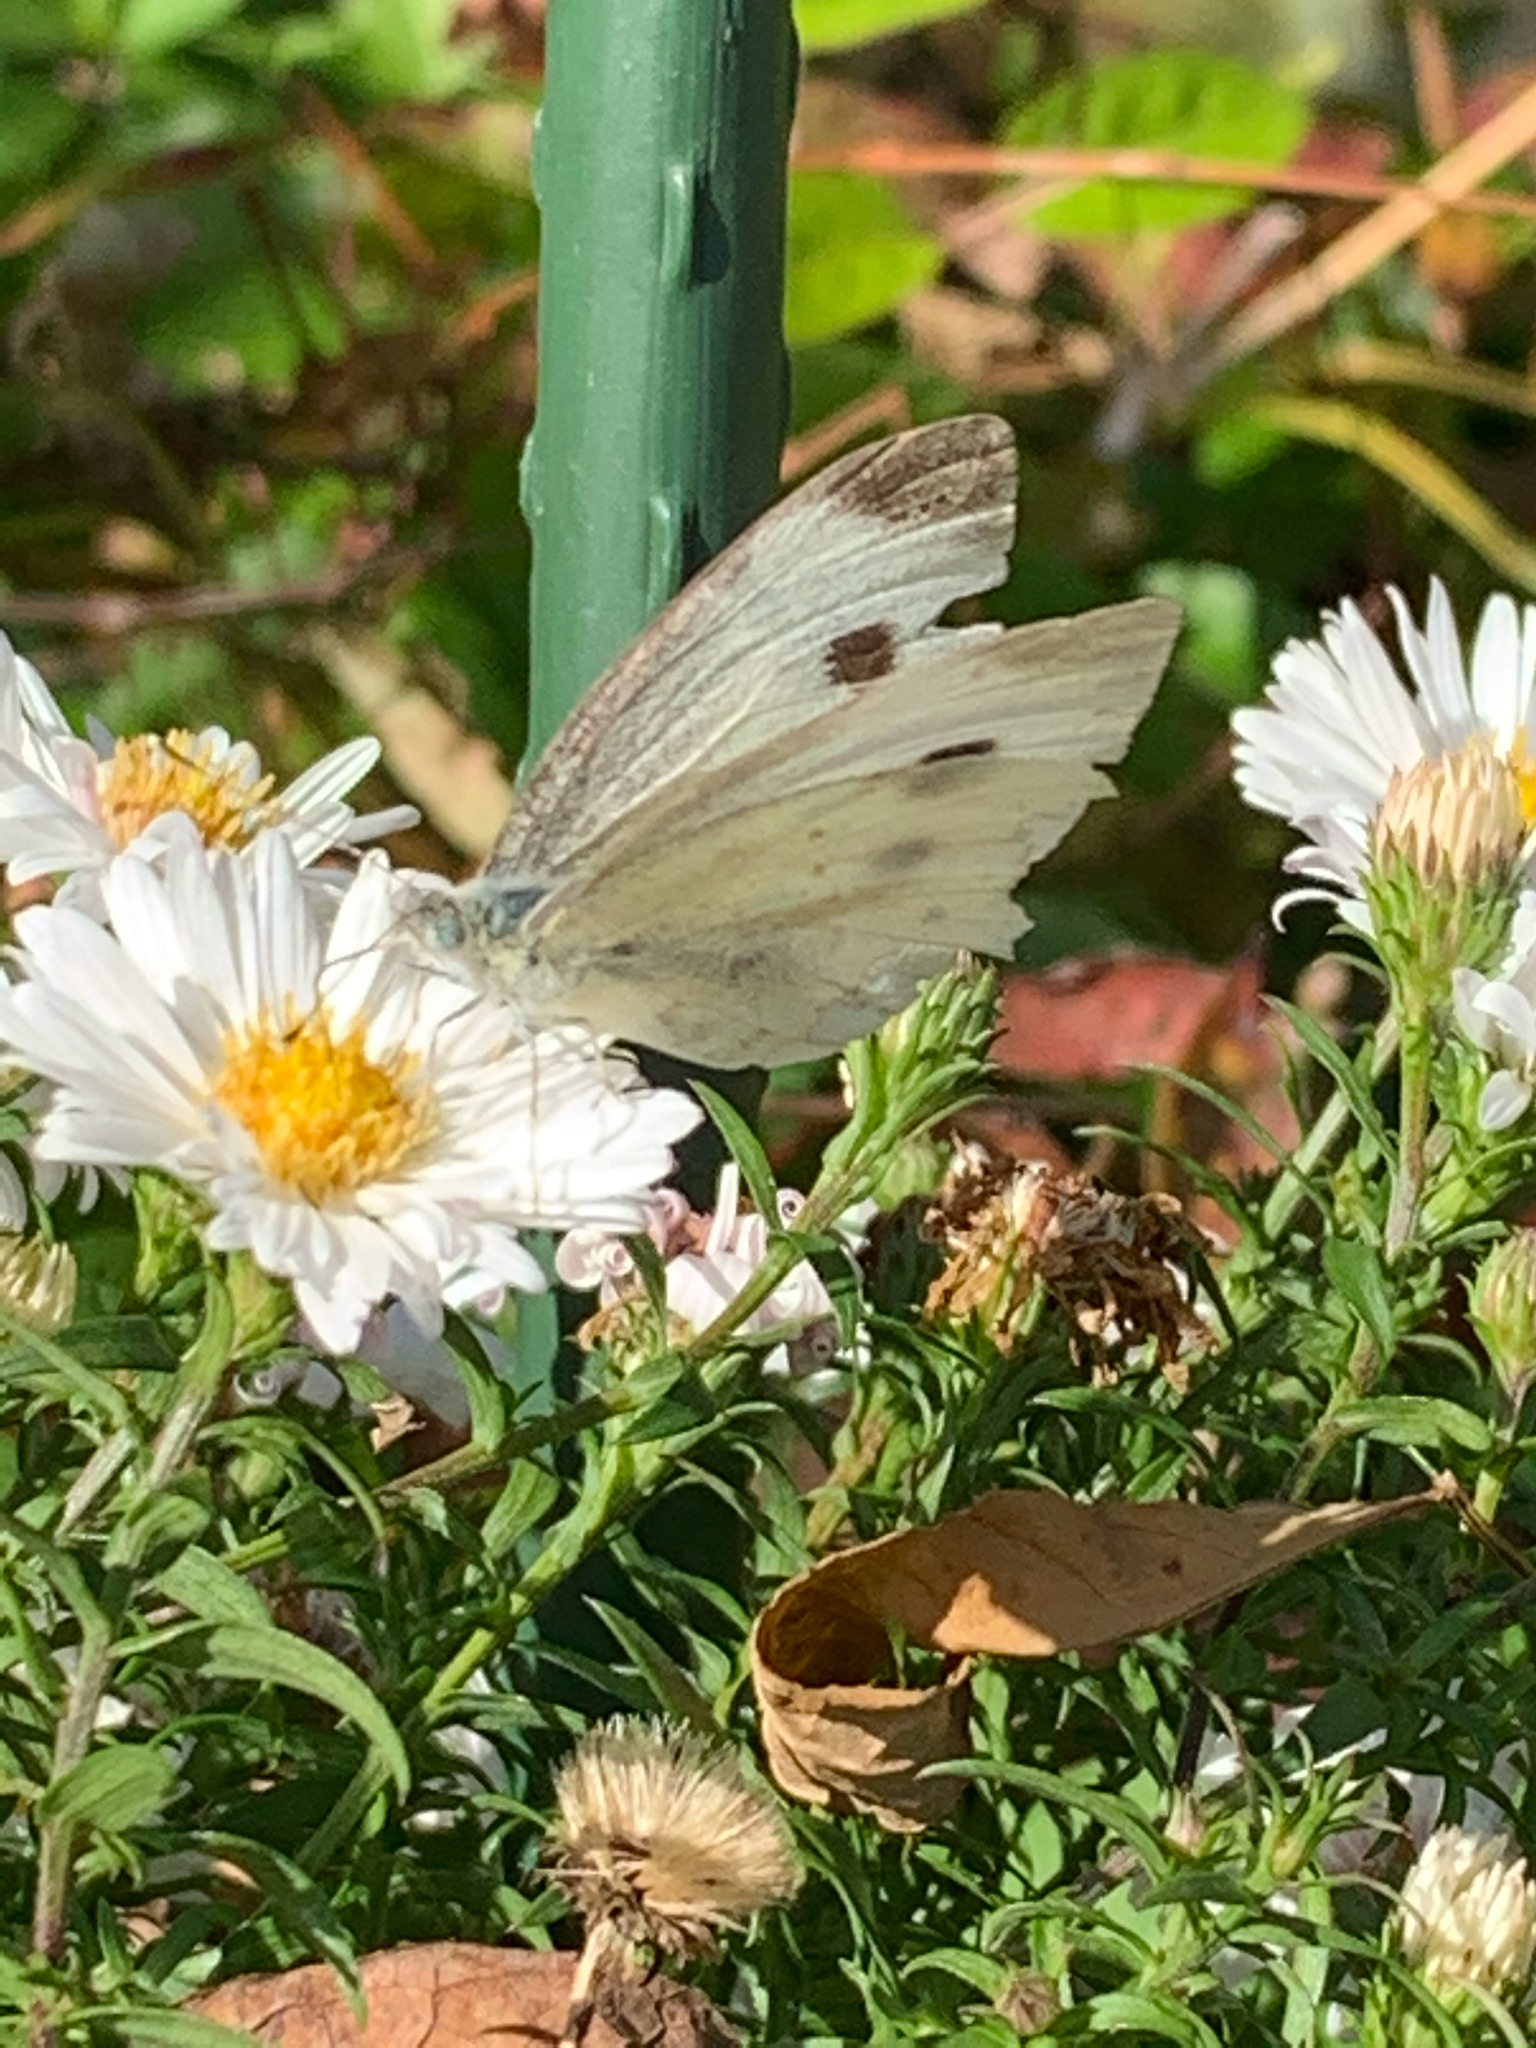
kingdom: Animalia
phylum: Arthropoda
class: Insecta
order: Lepidoptera
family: Pieridae
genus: Pieris
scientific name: Pieris rapae
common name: Small white
